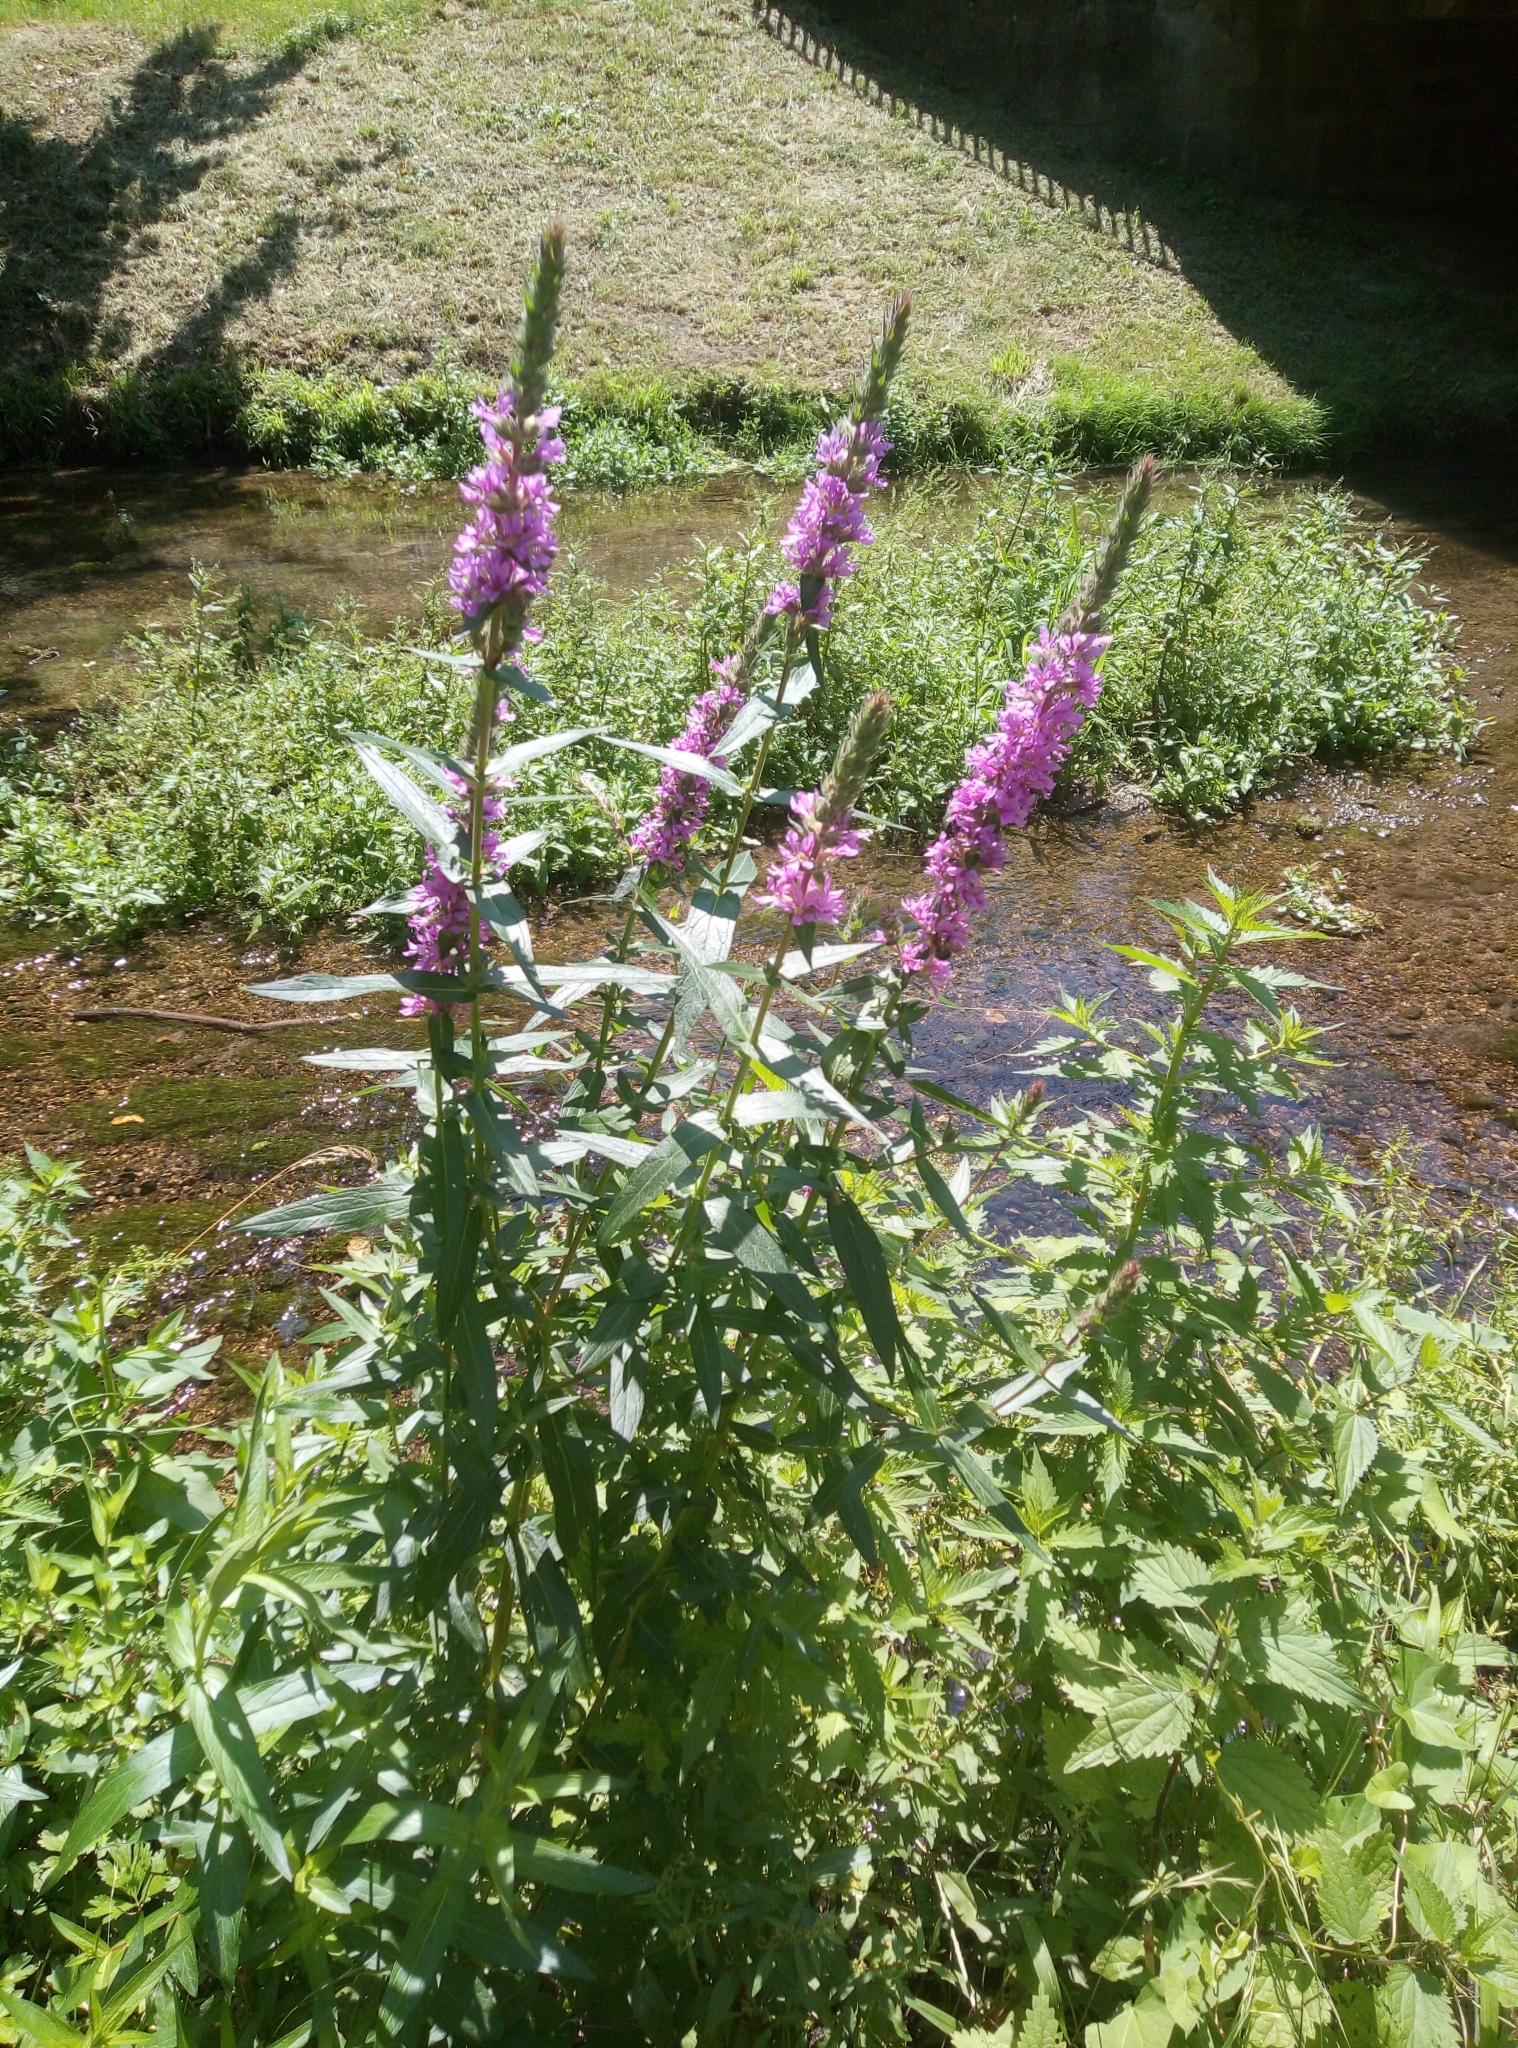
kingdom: Plantae
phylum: Tracheophyta
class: Magnoliopsida
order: Myrtales
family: Lythraceae
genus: Lythrum
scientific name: Lythrum salicaria
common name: Purple loosestrife
